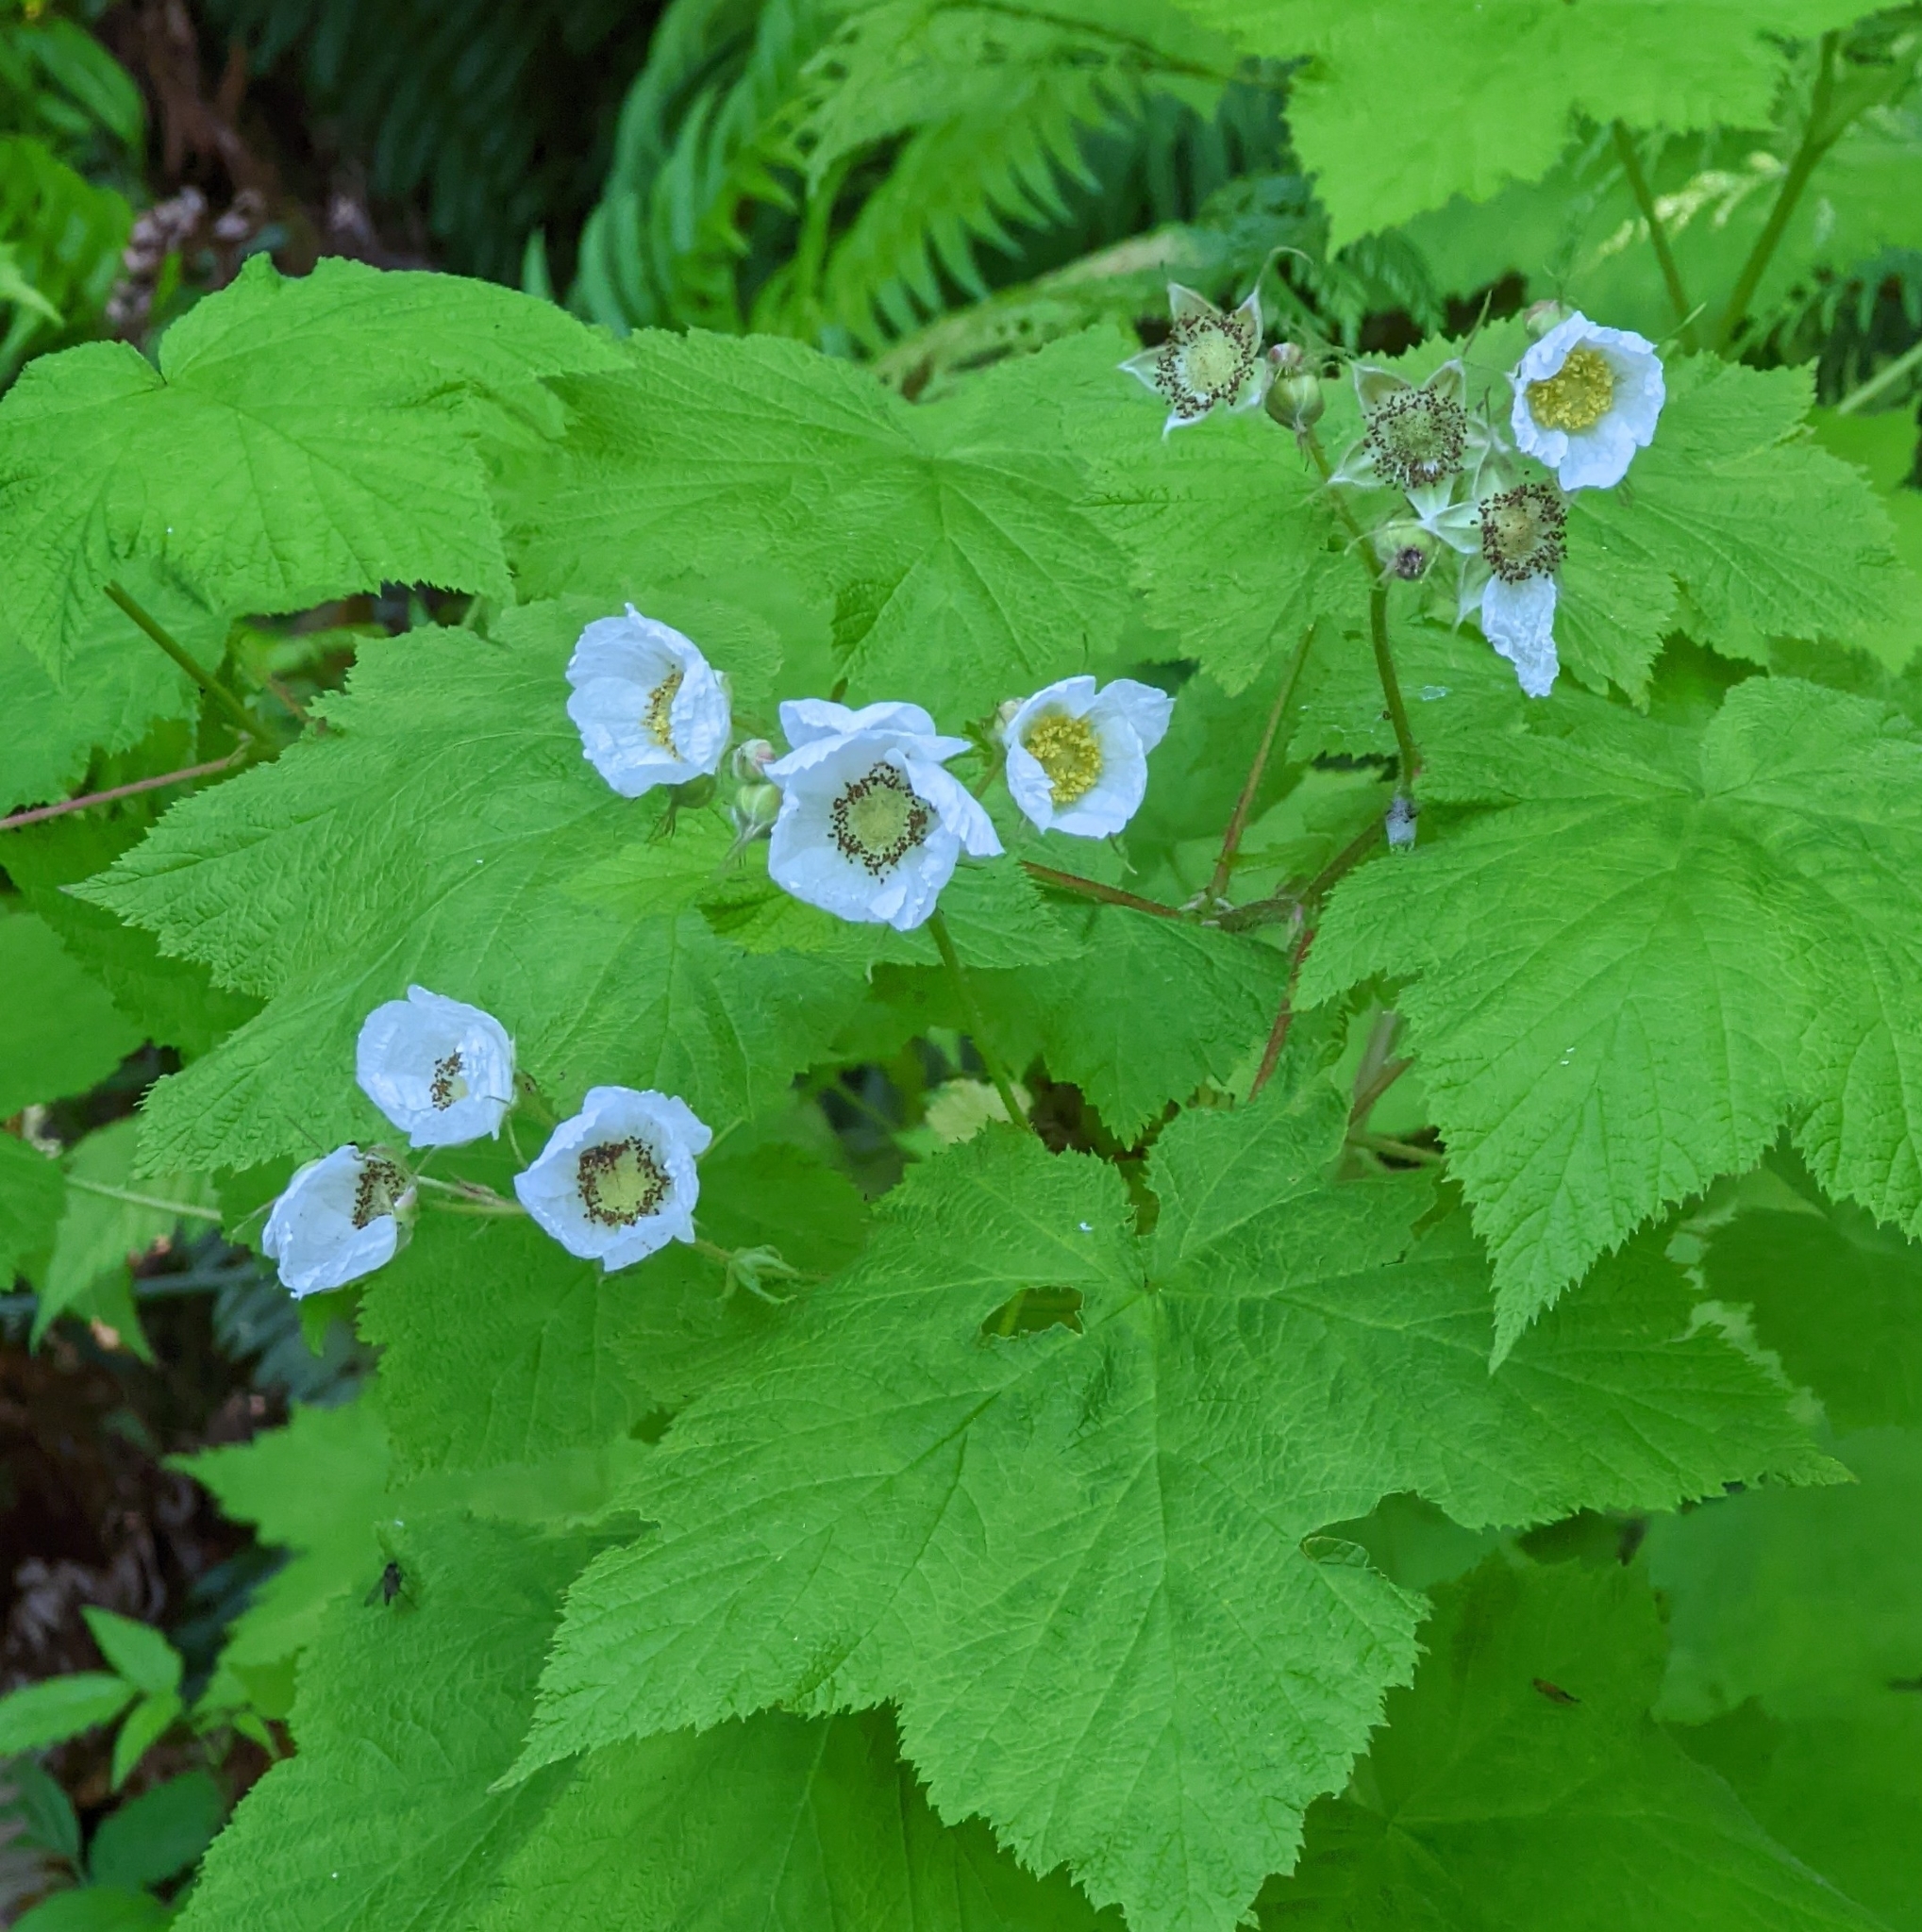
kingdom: Plantae
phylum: Tracheophyta
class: Magnoliopsida
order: Rosales
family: Rosaceae
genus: Rubus
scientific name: Rubus parviflorus
